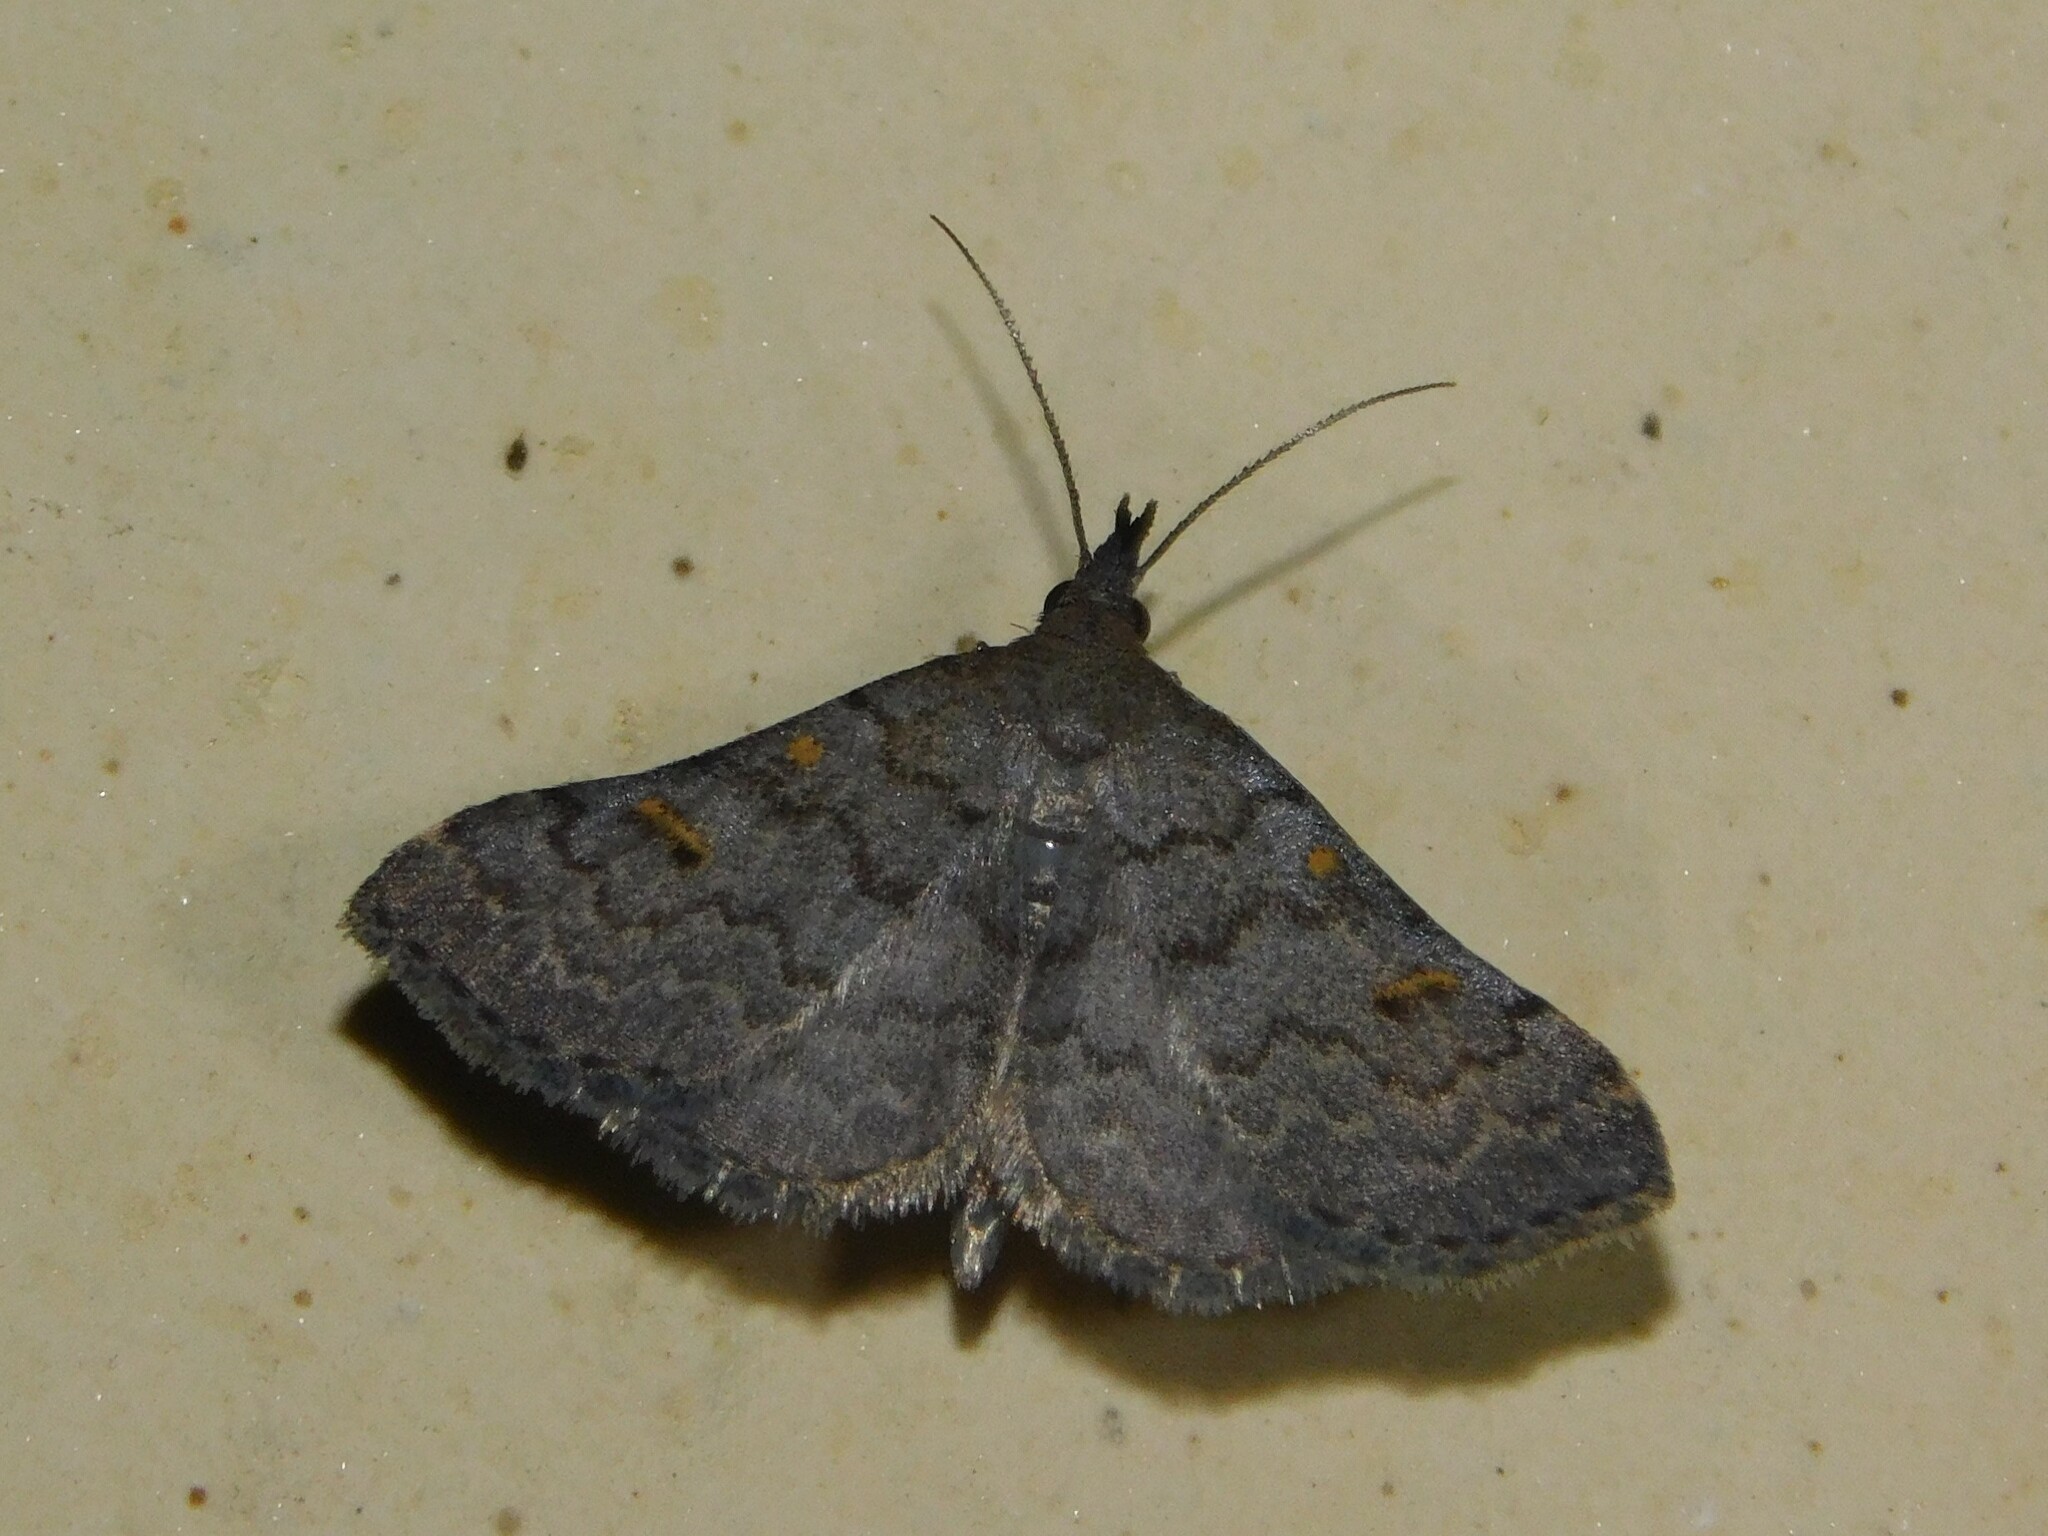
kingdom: Animalia
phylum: Arthropoda
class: Insecta
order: Lepidoptera
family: Erebidae
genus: Naarda
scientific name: Naarda xanthonephroides
